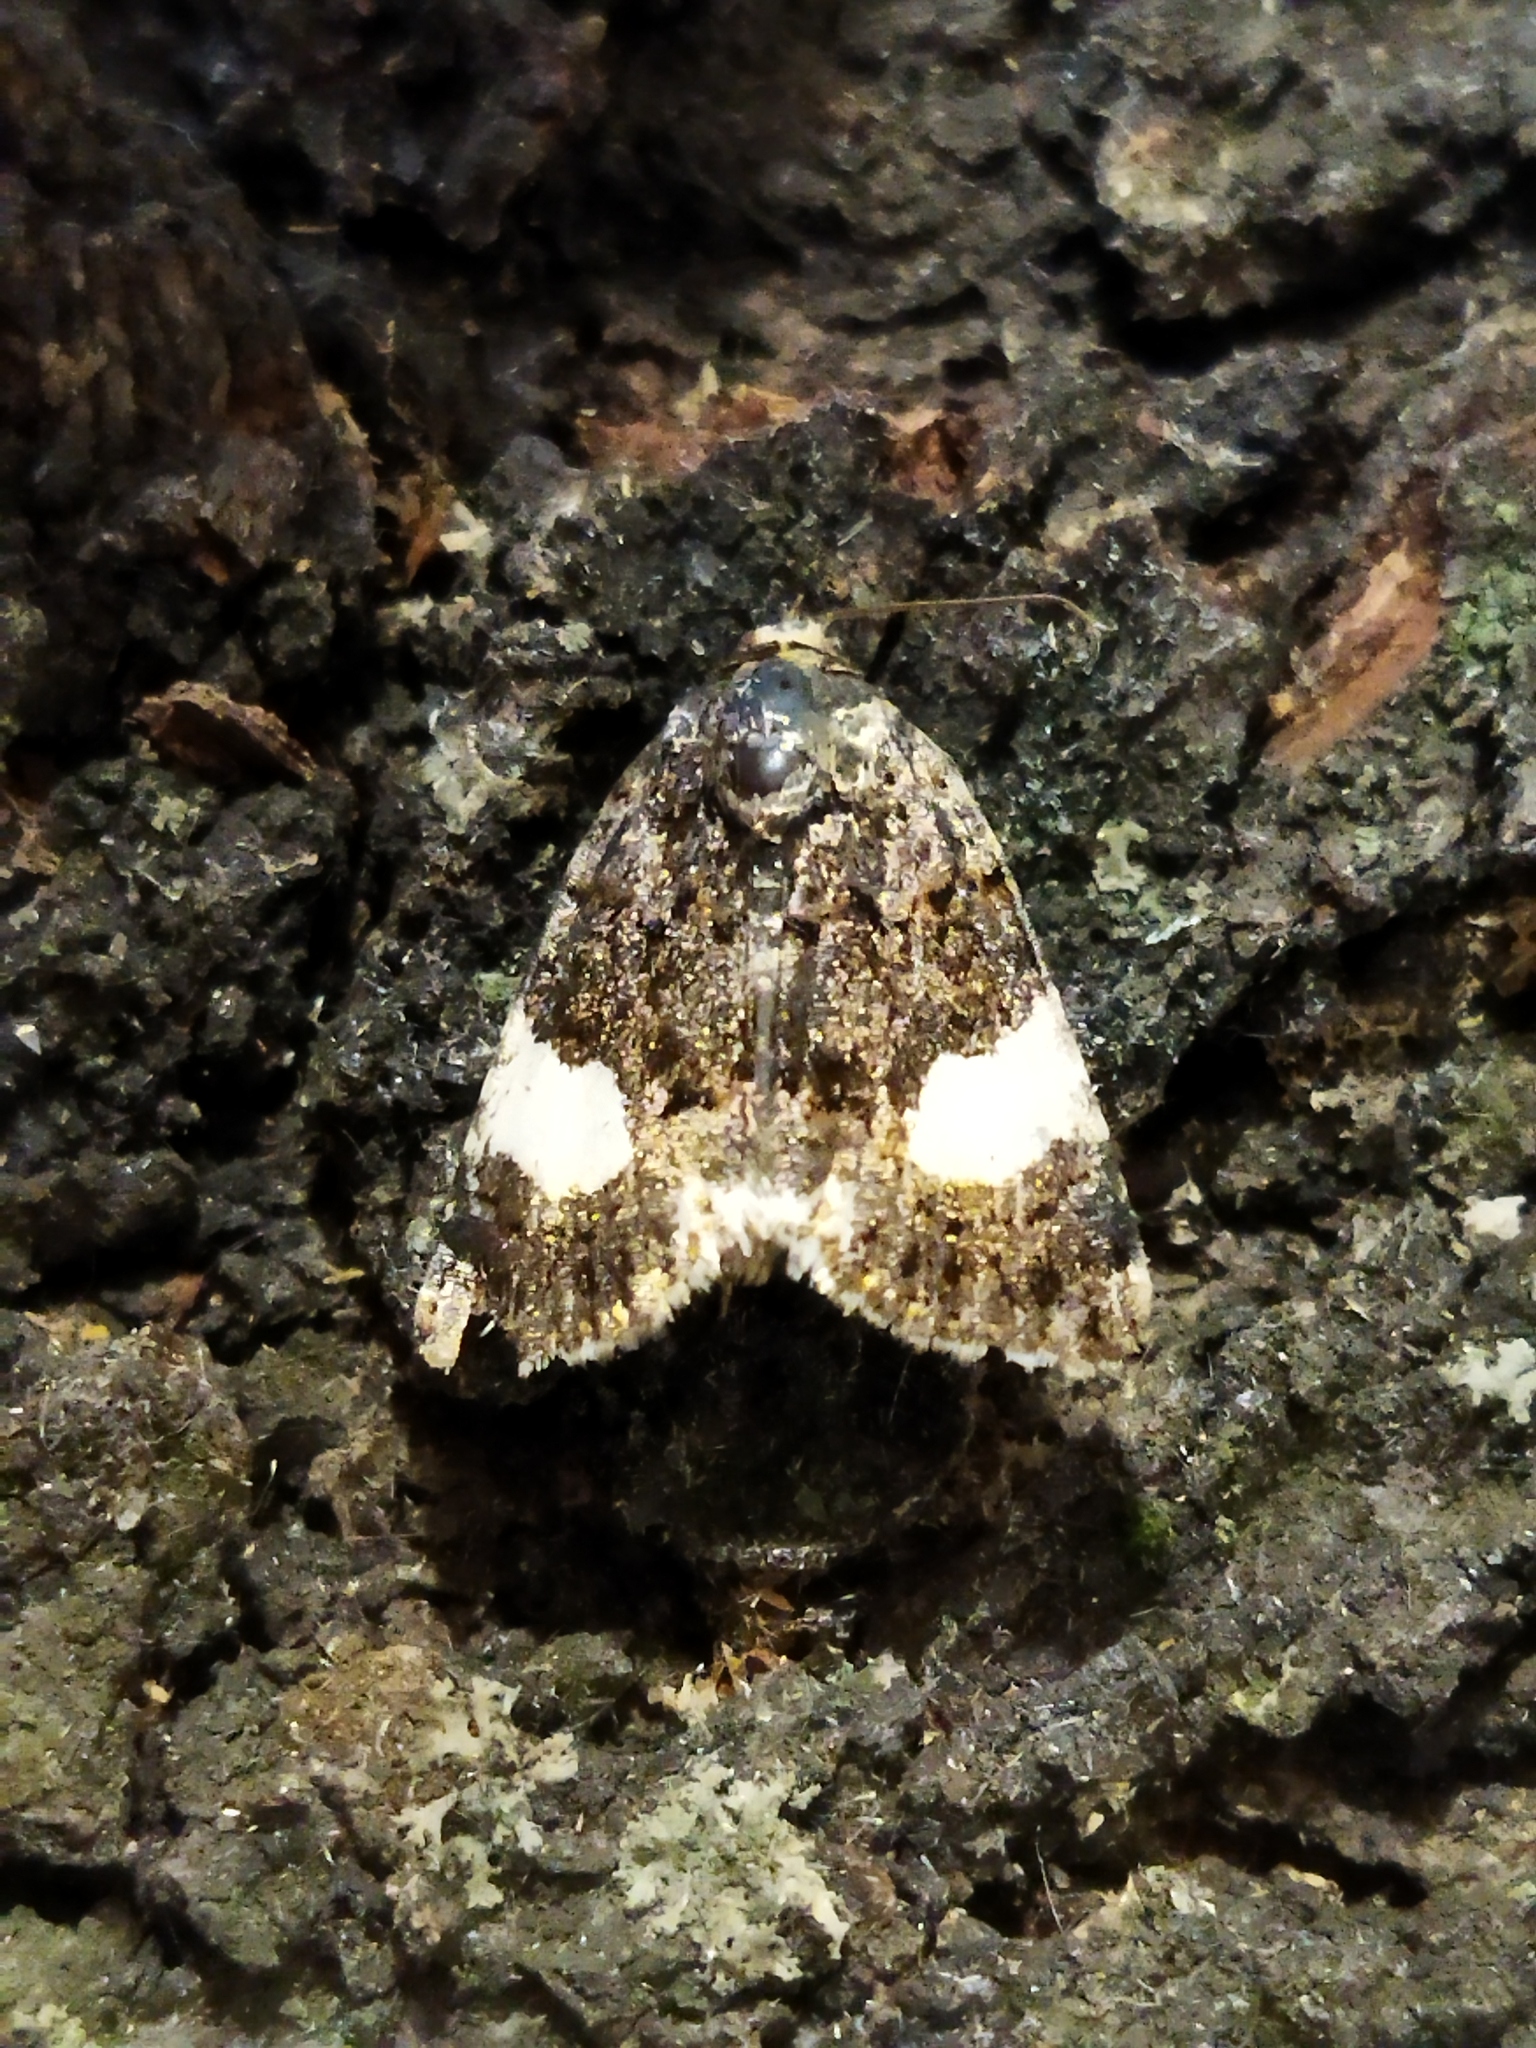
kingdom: Animalia
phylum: Arthropoda
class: Insecta
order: Lepidoptera
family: Erebidae
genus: Tyta
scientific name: Tyta luctuosa
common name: Four-spotted
